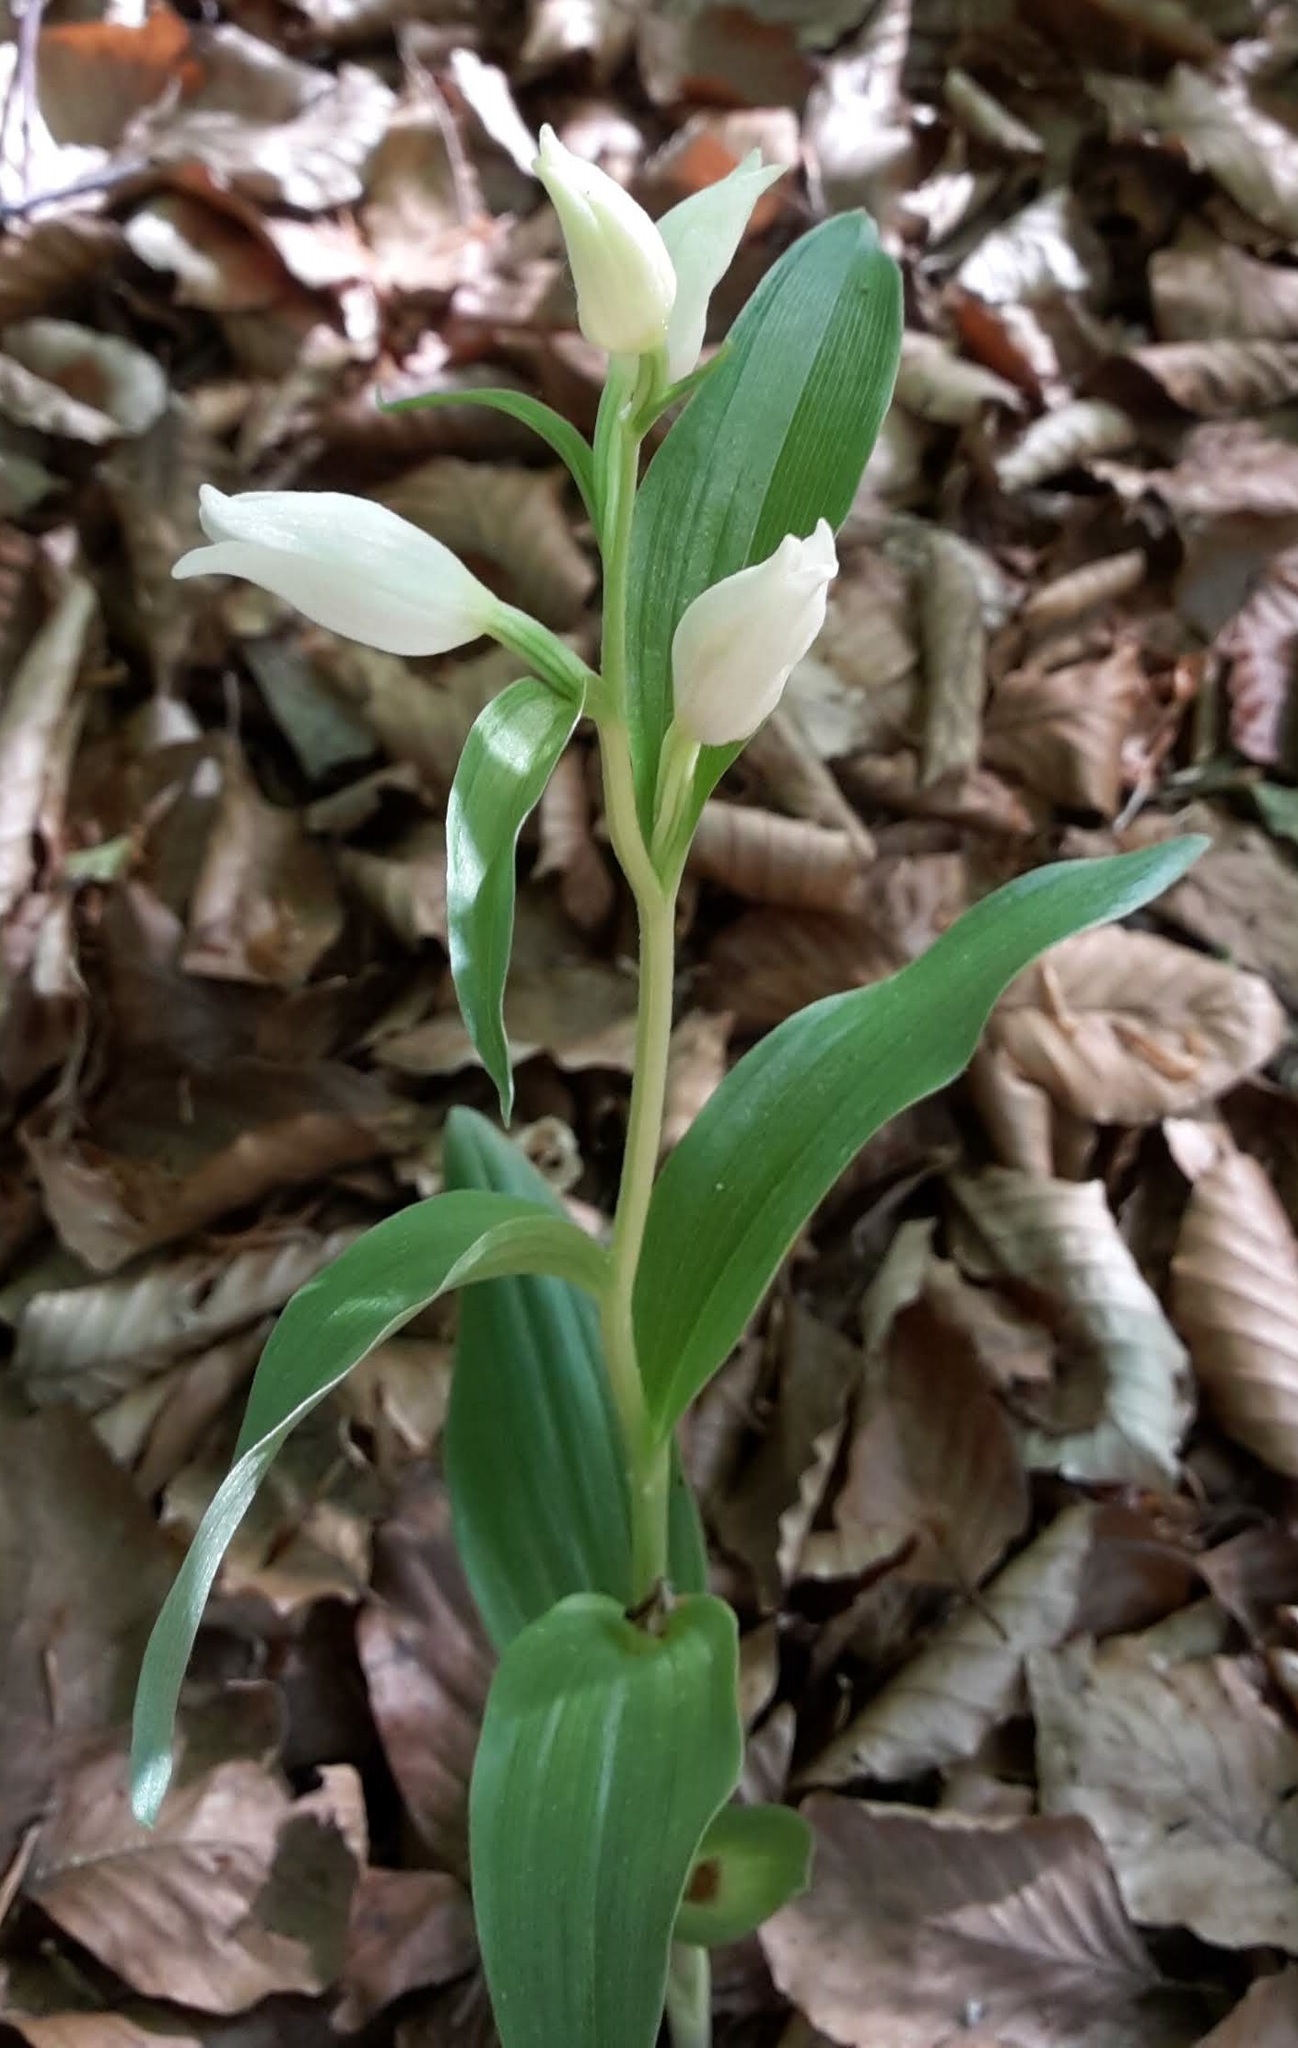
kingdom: Plantae
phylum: Tracheophyta
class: Liliopsida
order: Asparagales
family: Orchidaceae
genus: Cephalanthera
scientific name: Cephalanthera damasonium
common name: White helleborine
